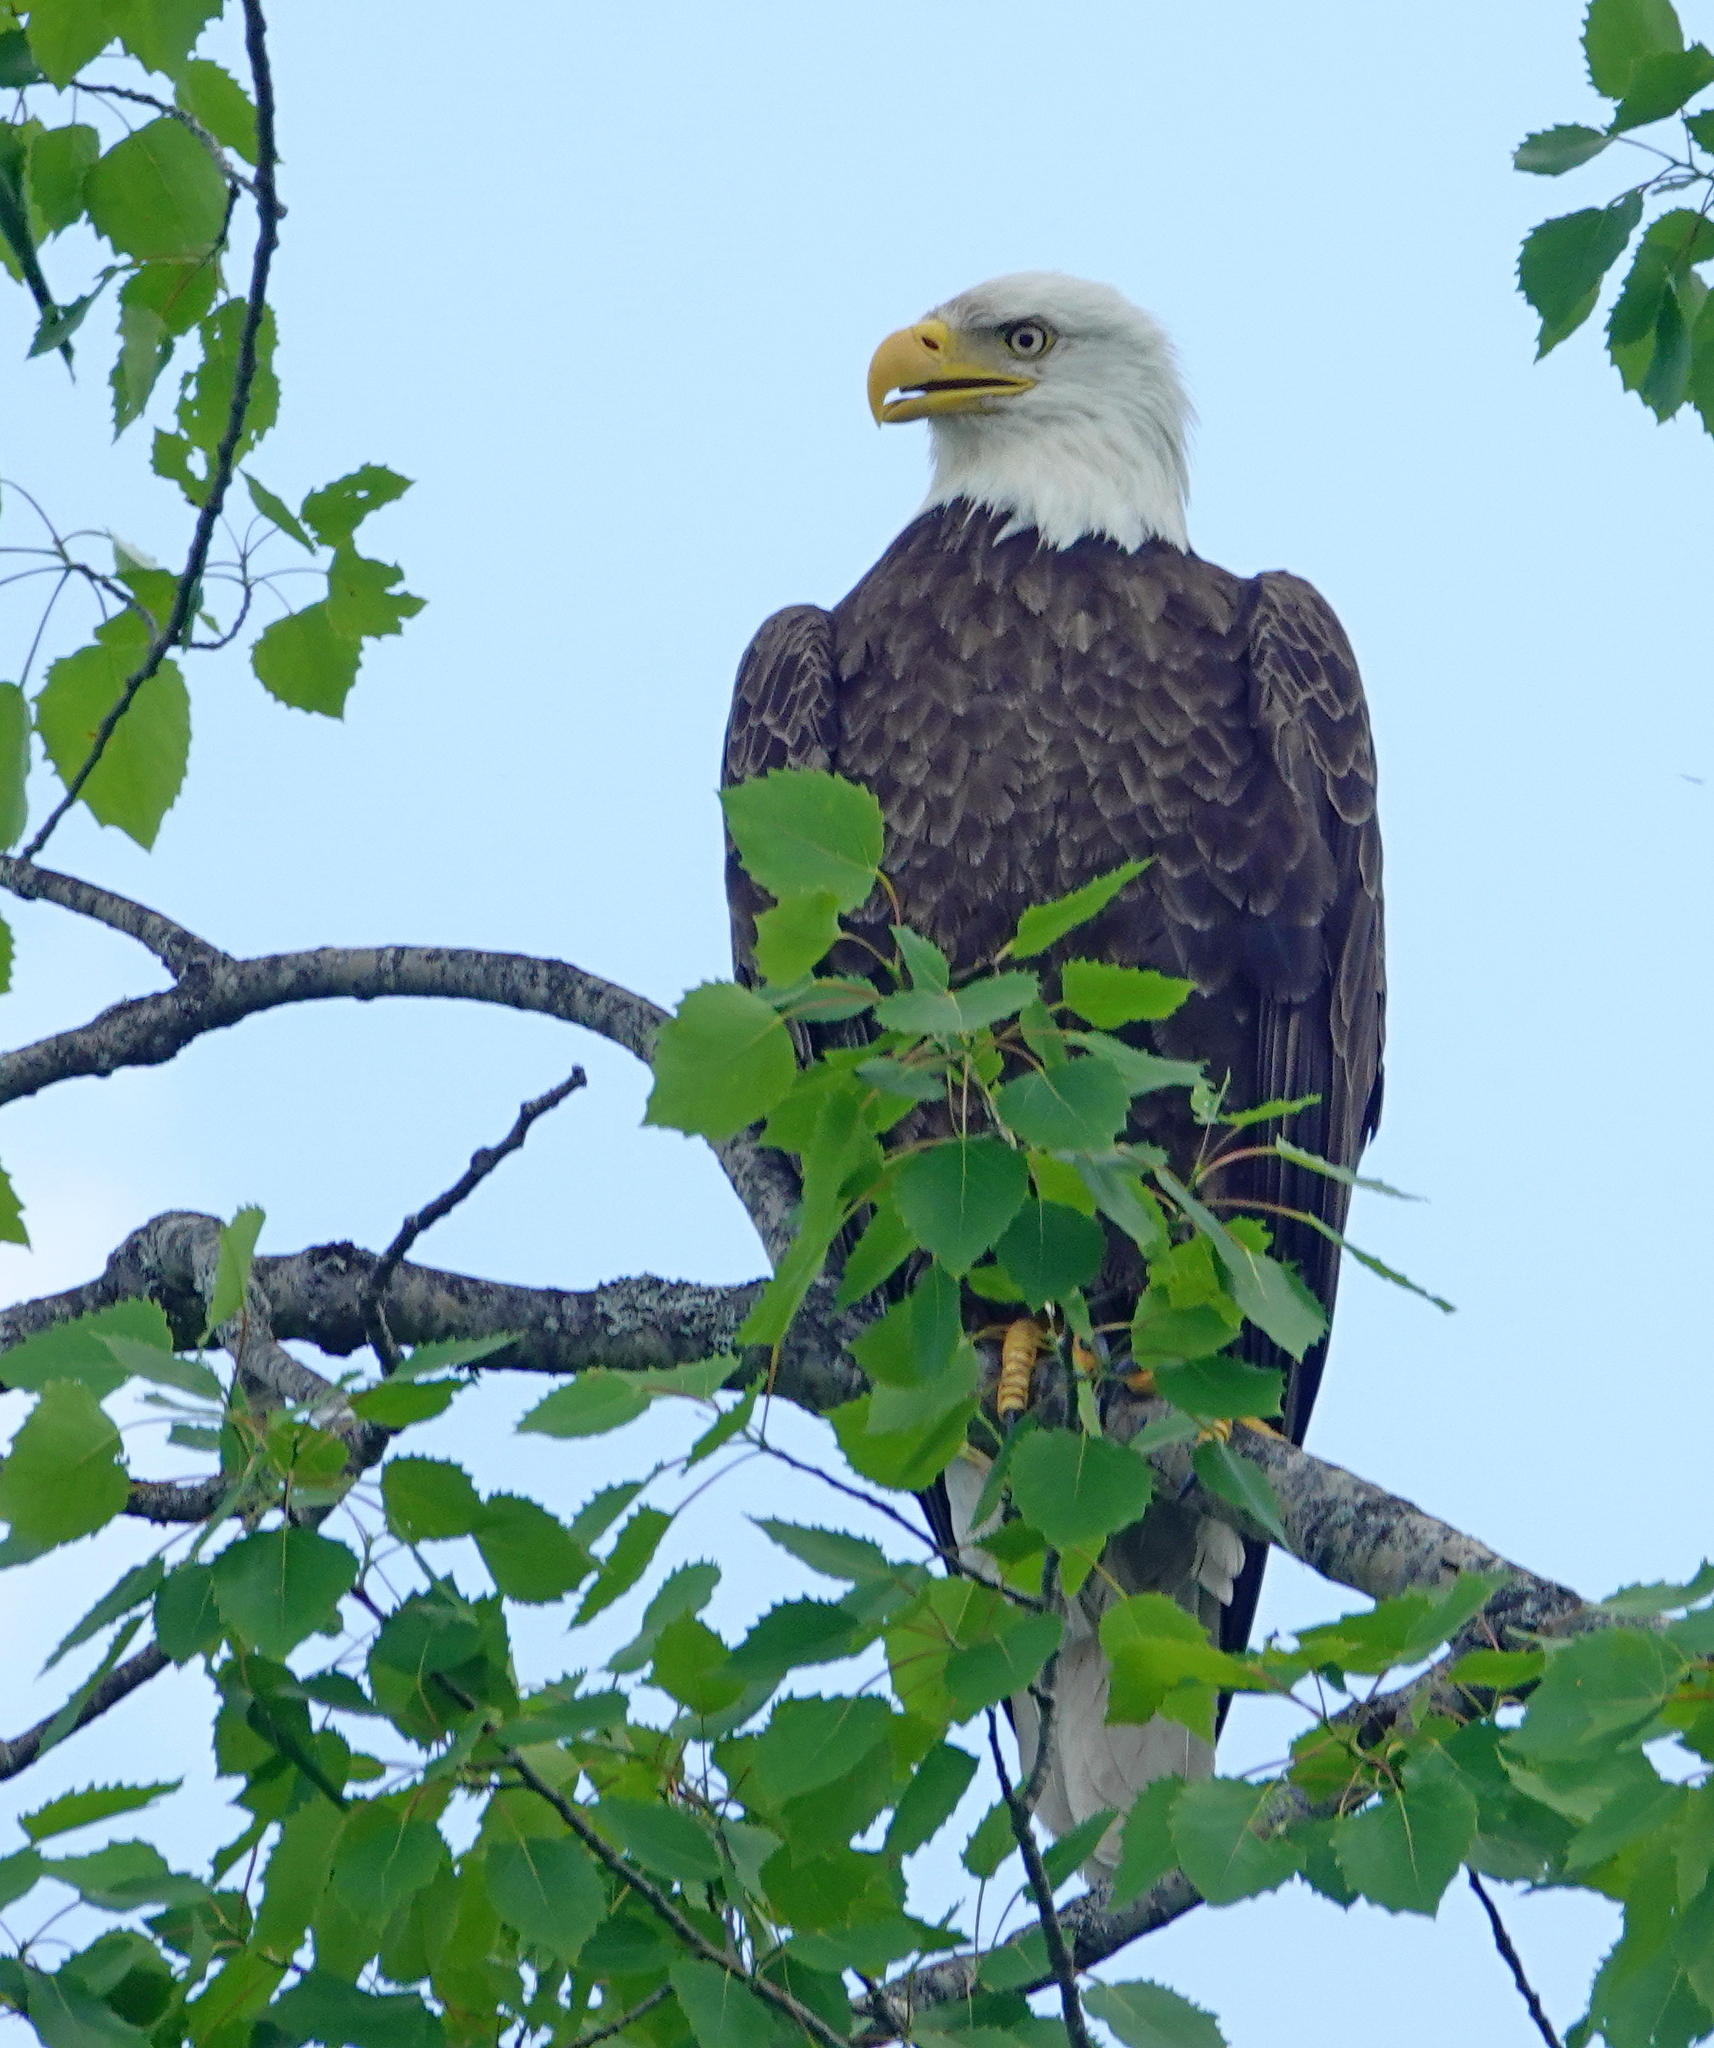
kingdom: Animalia
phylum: Chordata
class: Aves
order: Accipitriformes
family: Accipitridae
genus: Haliaeetus
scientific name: Haliaeetus leucocephalus
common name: Bald eagle
